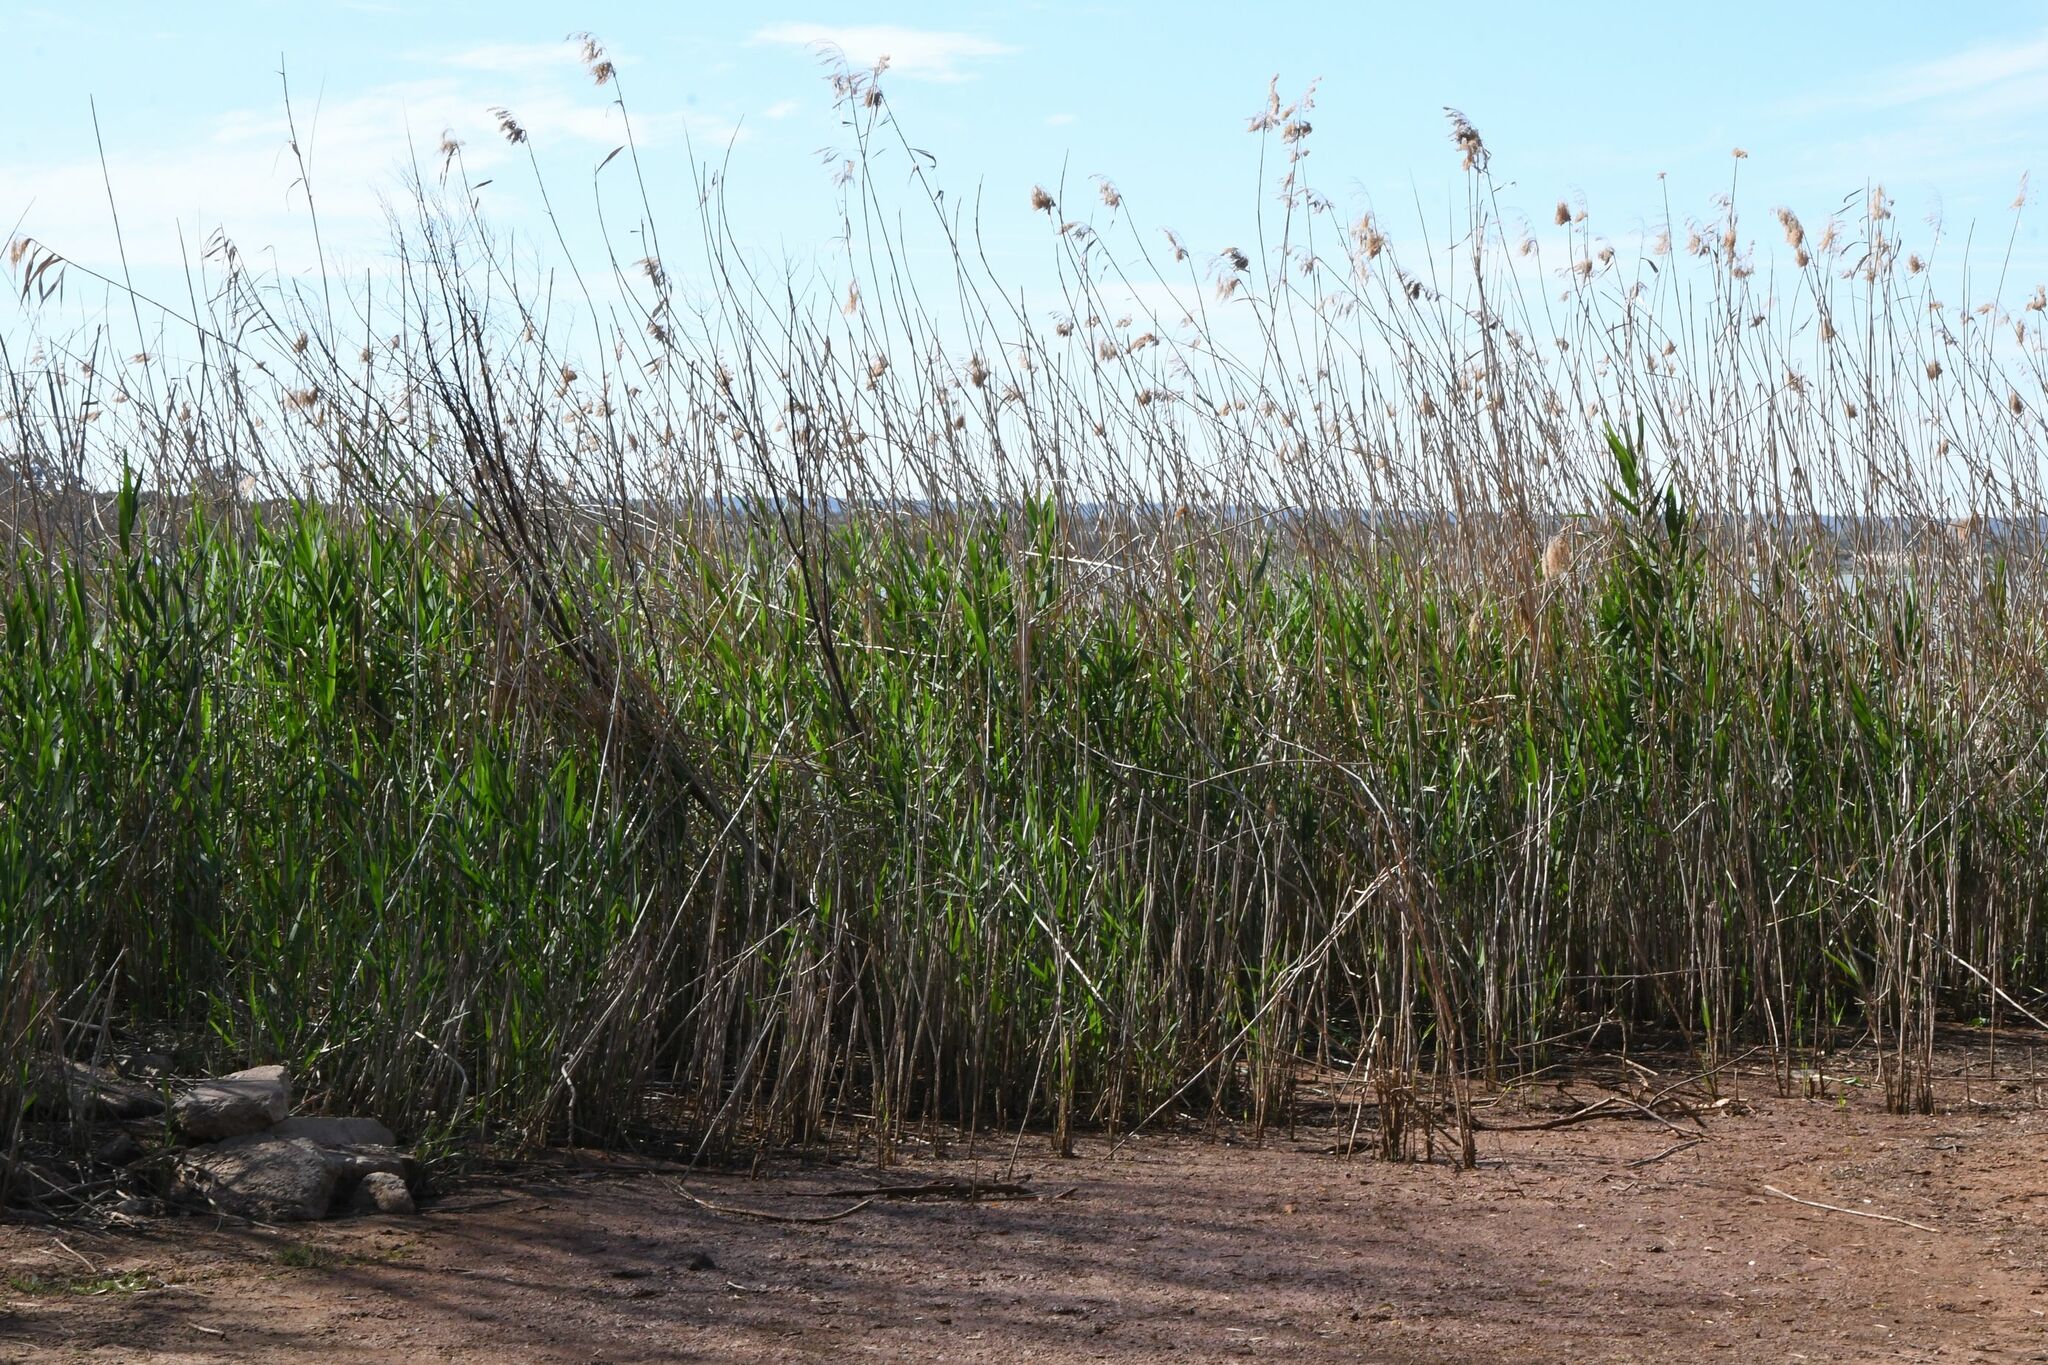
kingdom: Plantae
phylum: Tracheophyta
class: Liliopsida
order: Poales
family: Poaceae
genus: Phragmites
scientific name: Phragmites australis
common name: Common reed
